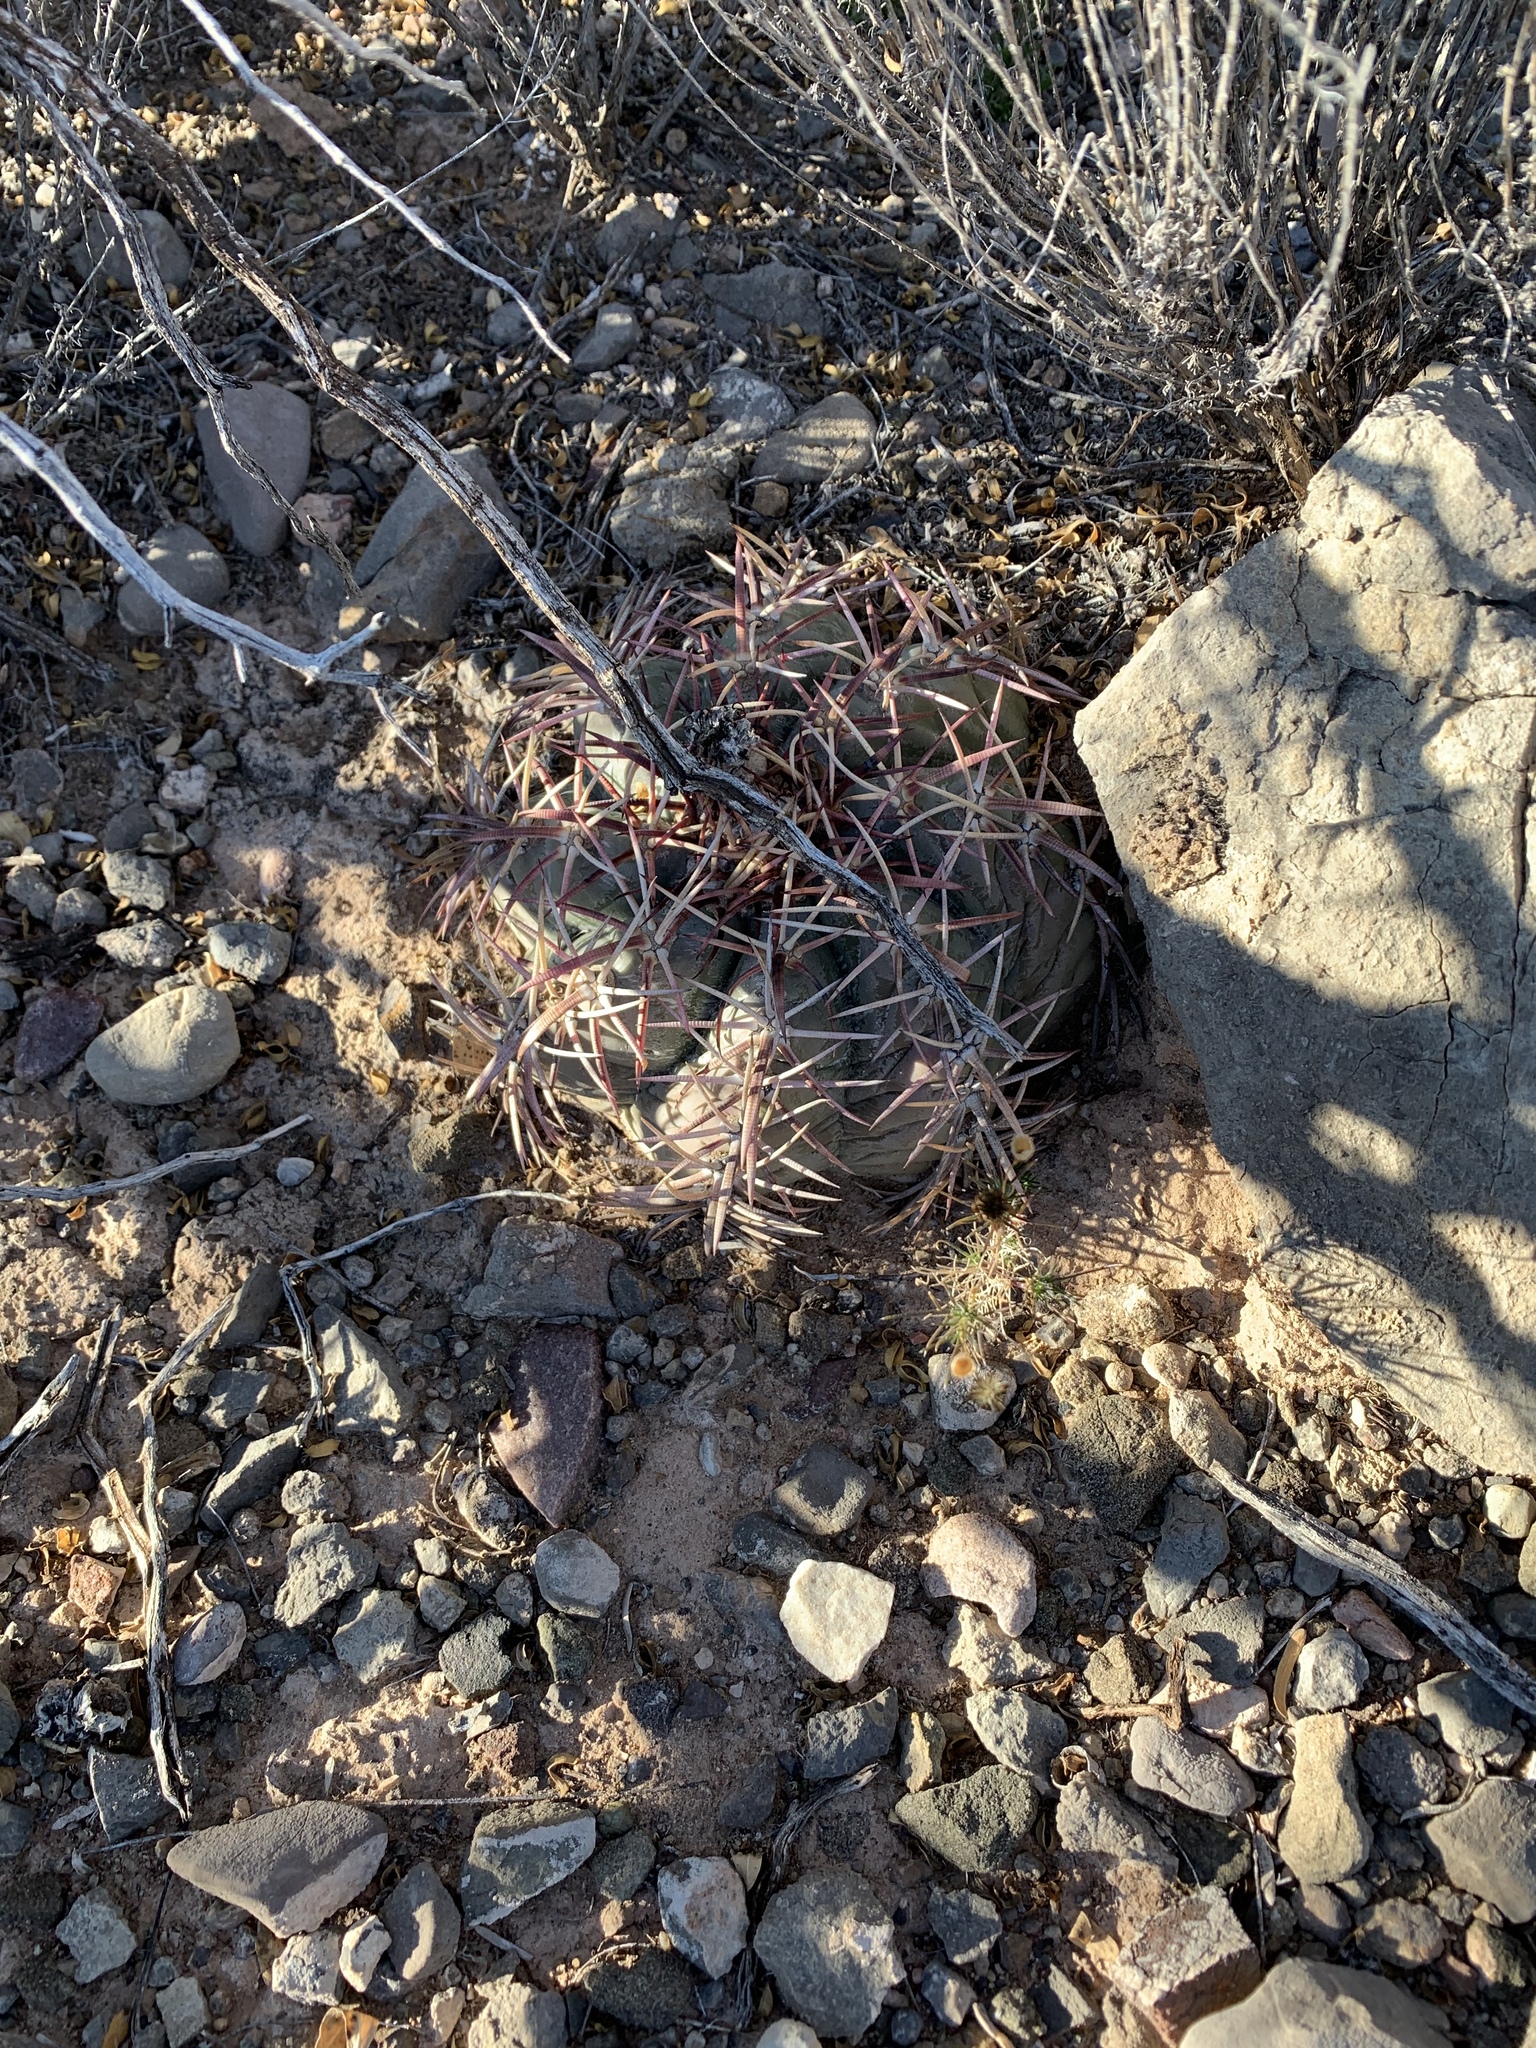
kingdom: Plantae
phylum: Tracheophyta
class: Magnoliopsida
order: Caryophyllales
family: Cactaceae
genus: Echinocactus
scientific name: Echinocactus horizonthalonius
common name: Devilshead
